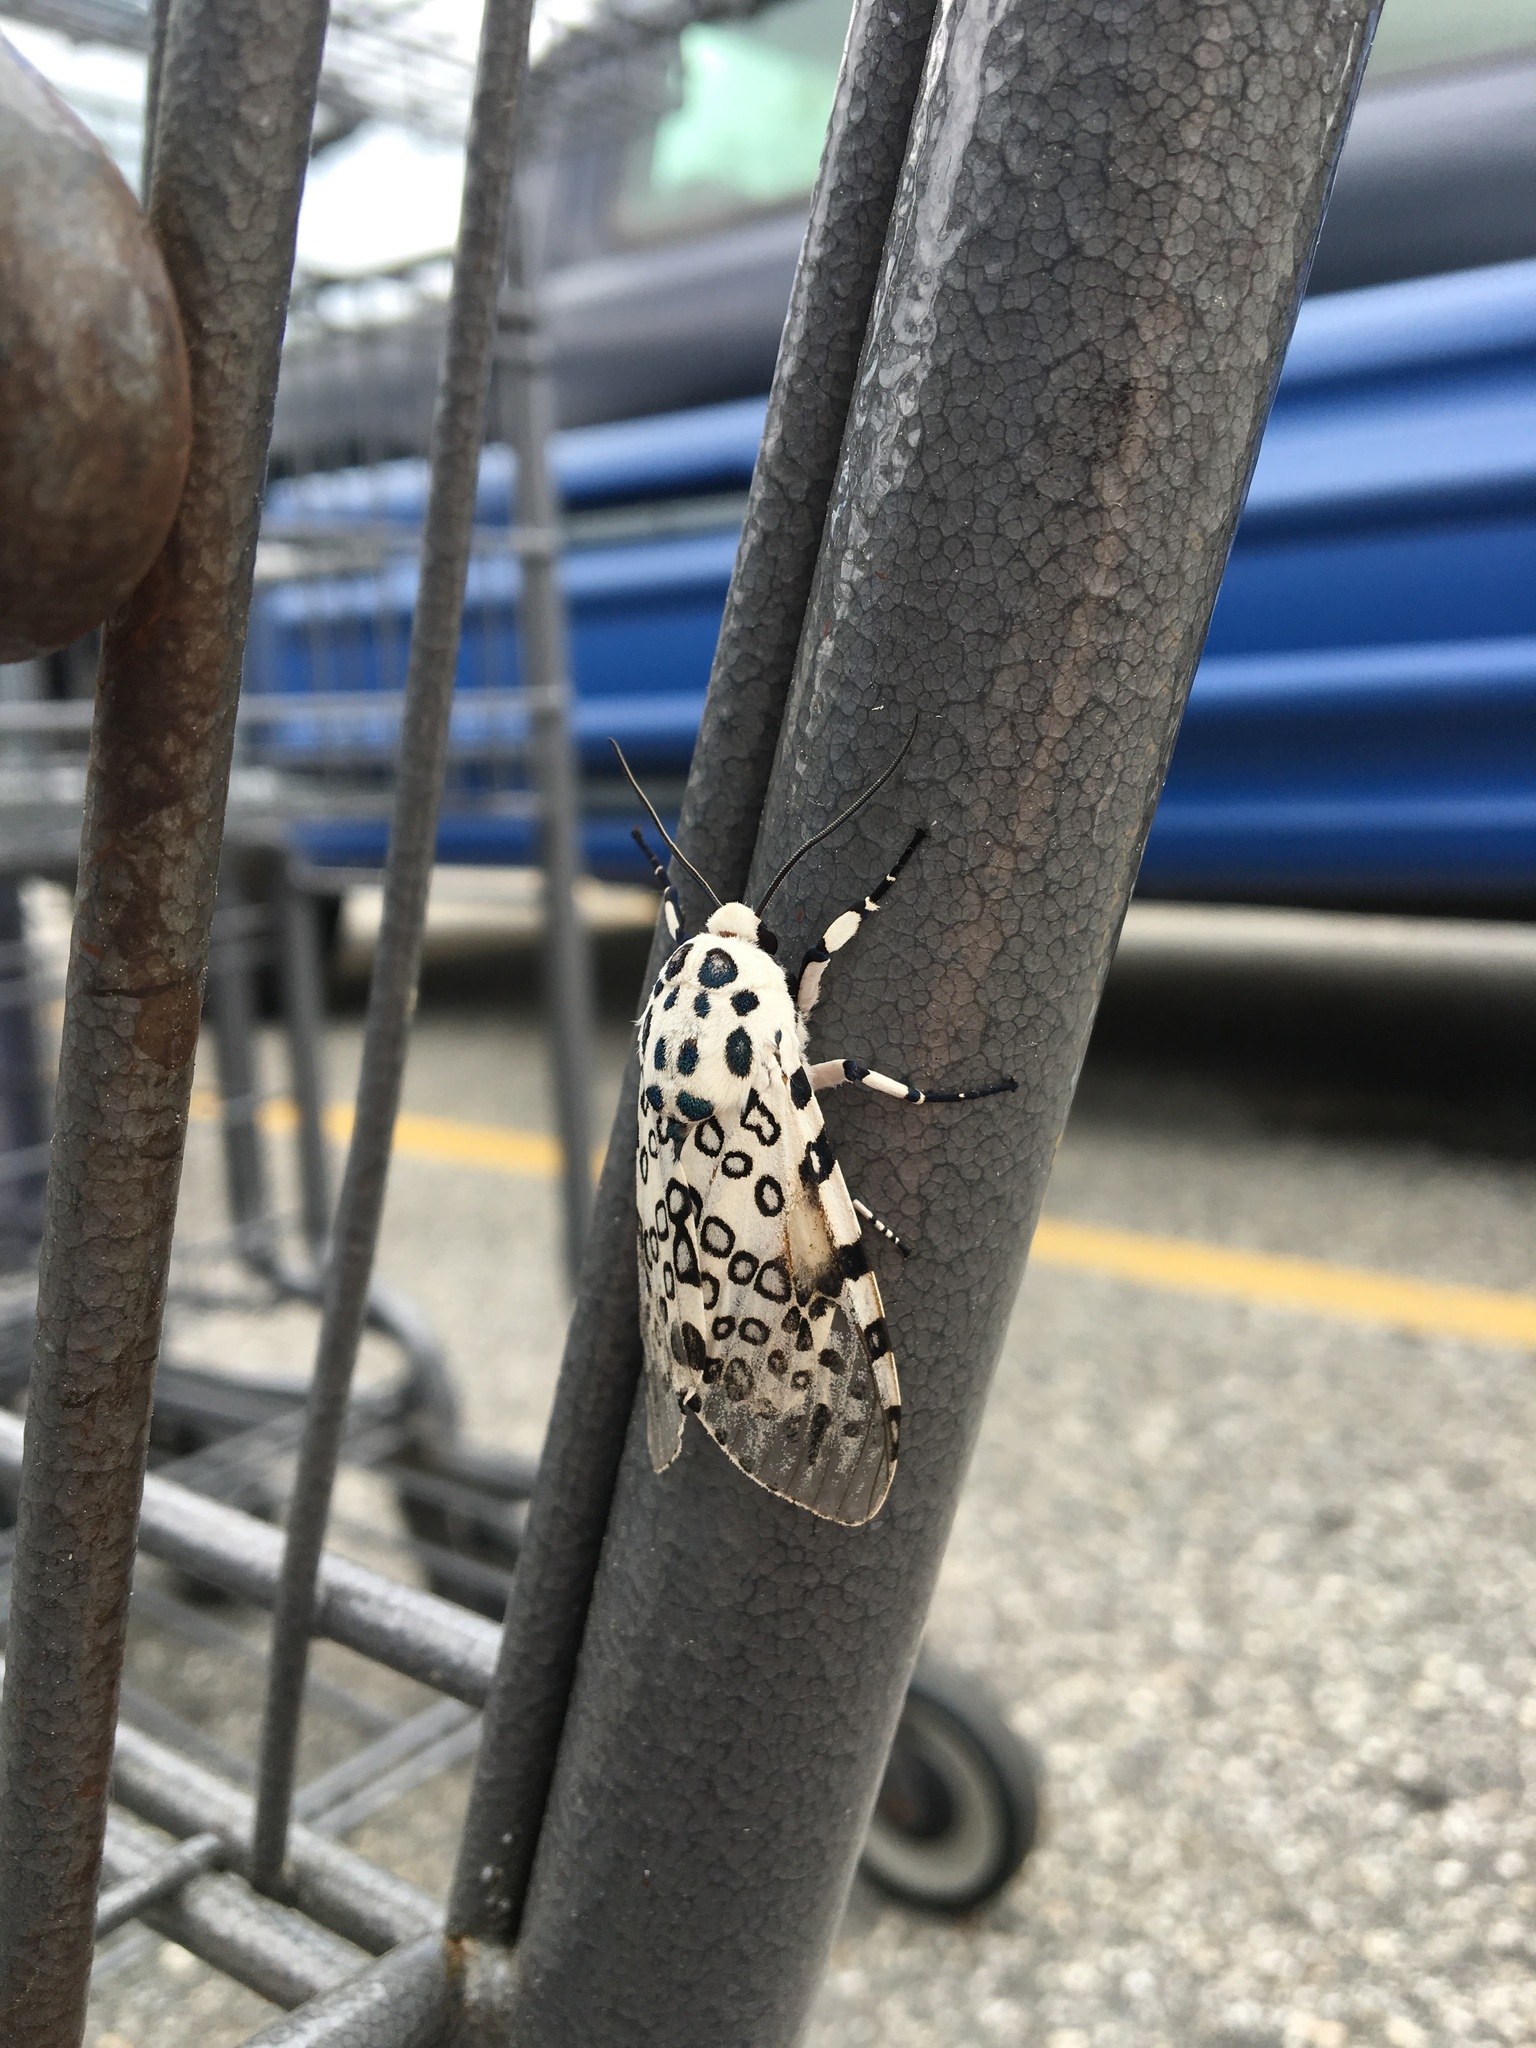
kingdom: Animalia
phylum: Arthropoda
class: Insecta
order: Lepidoptera
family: Erebidae
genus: Hypercompe
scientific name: Hypercompe scribonia
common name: Giant leopard moth
